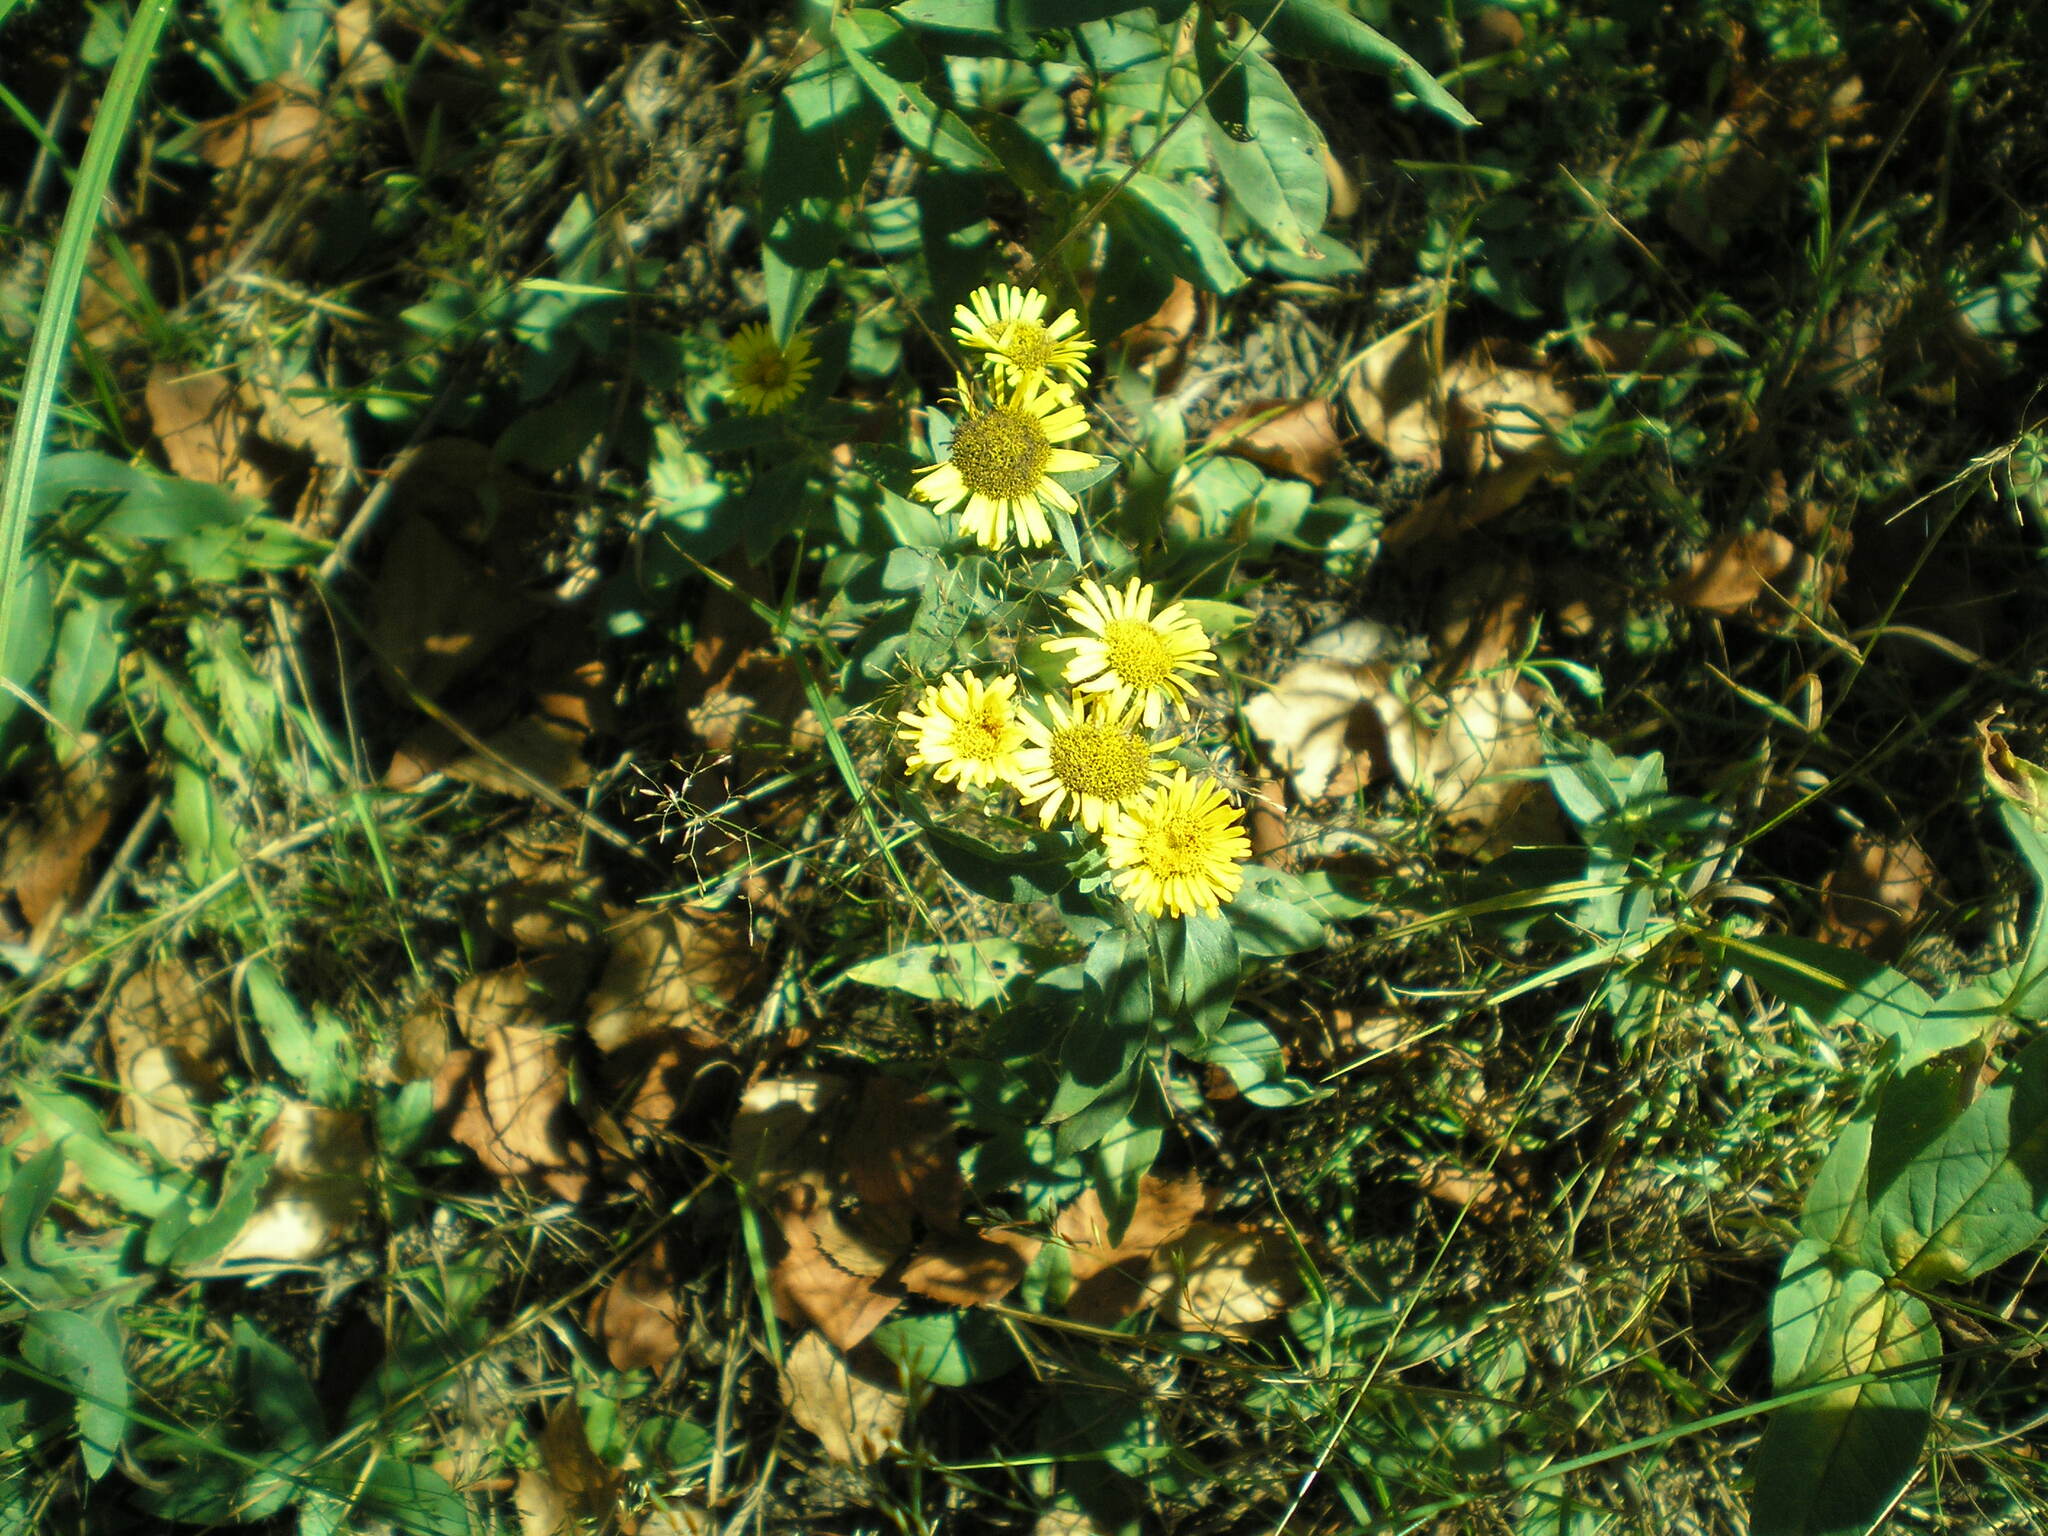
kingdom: Plantae
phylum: Tracheophyta
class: Magnoliopsida
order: Asterales
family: Asteraceae
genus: Pentanema
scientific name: Pentanema britannicum
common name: British elecampane
